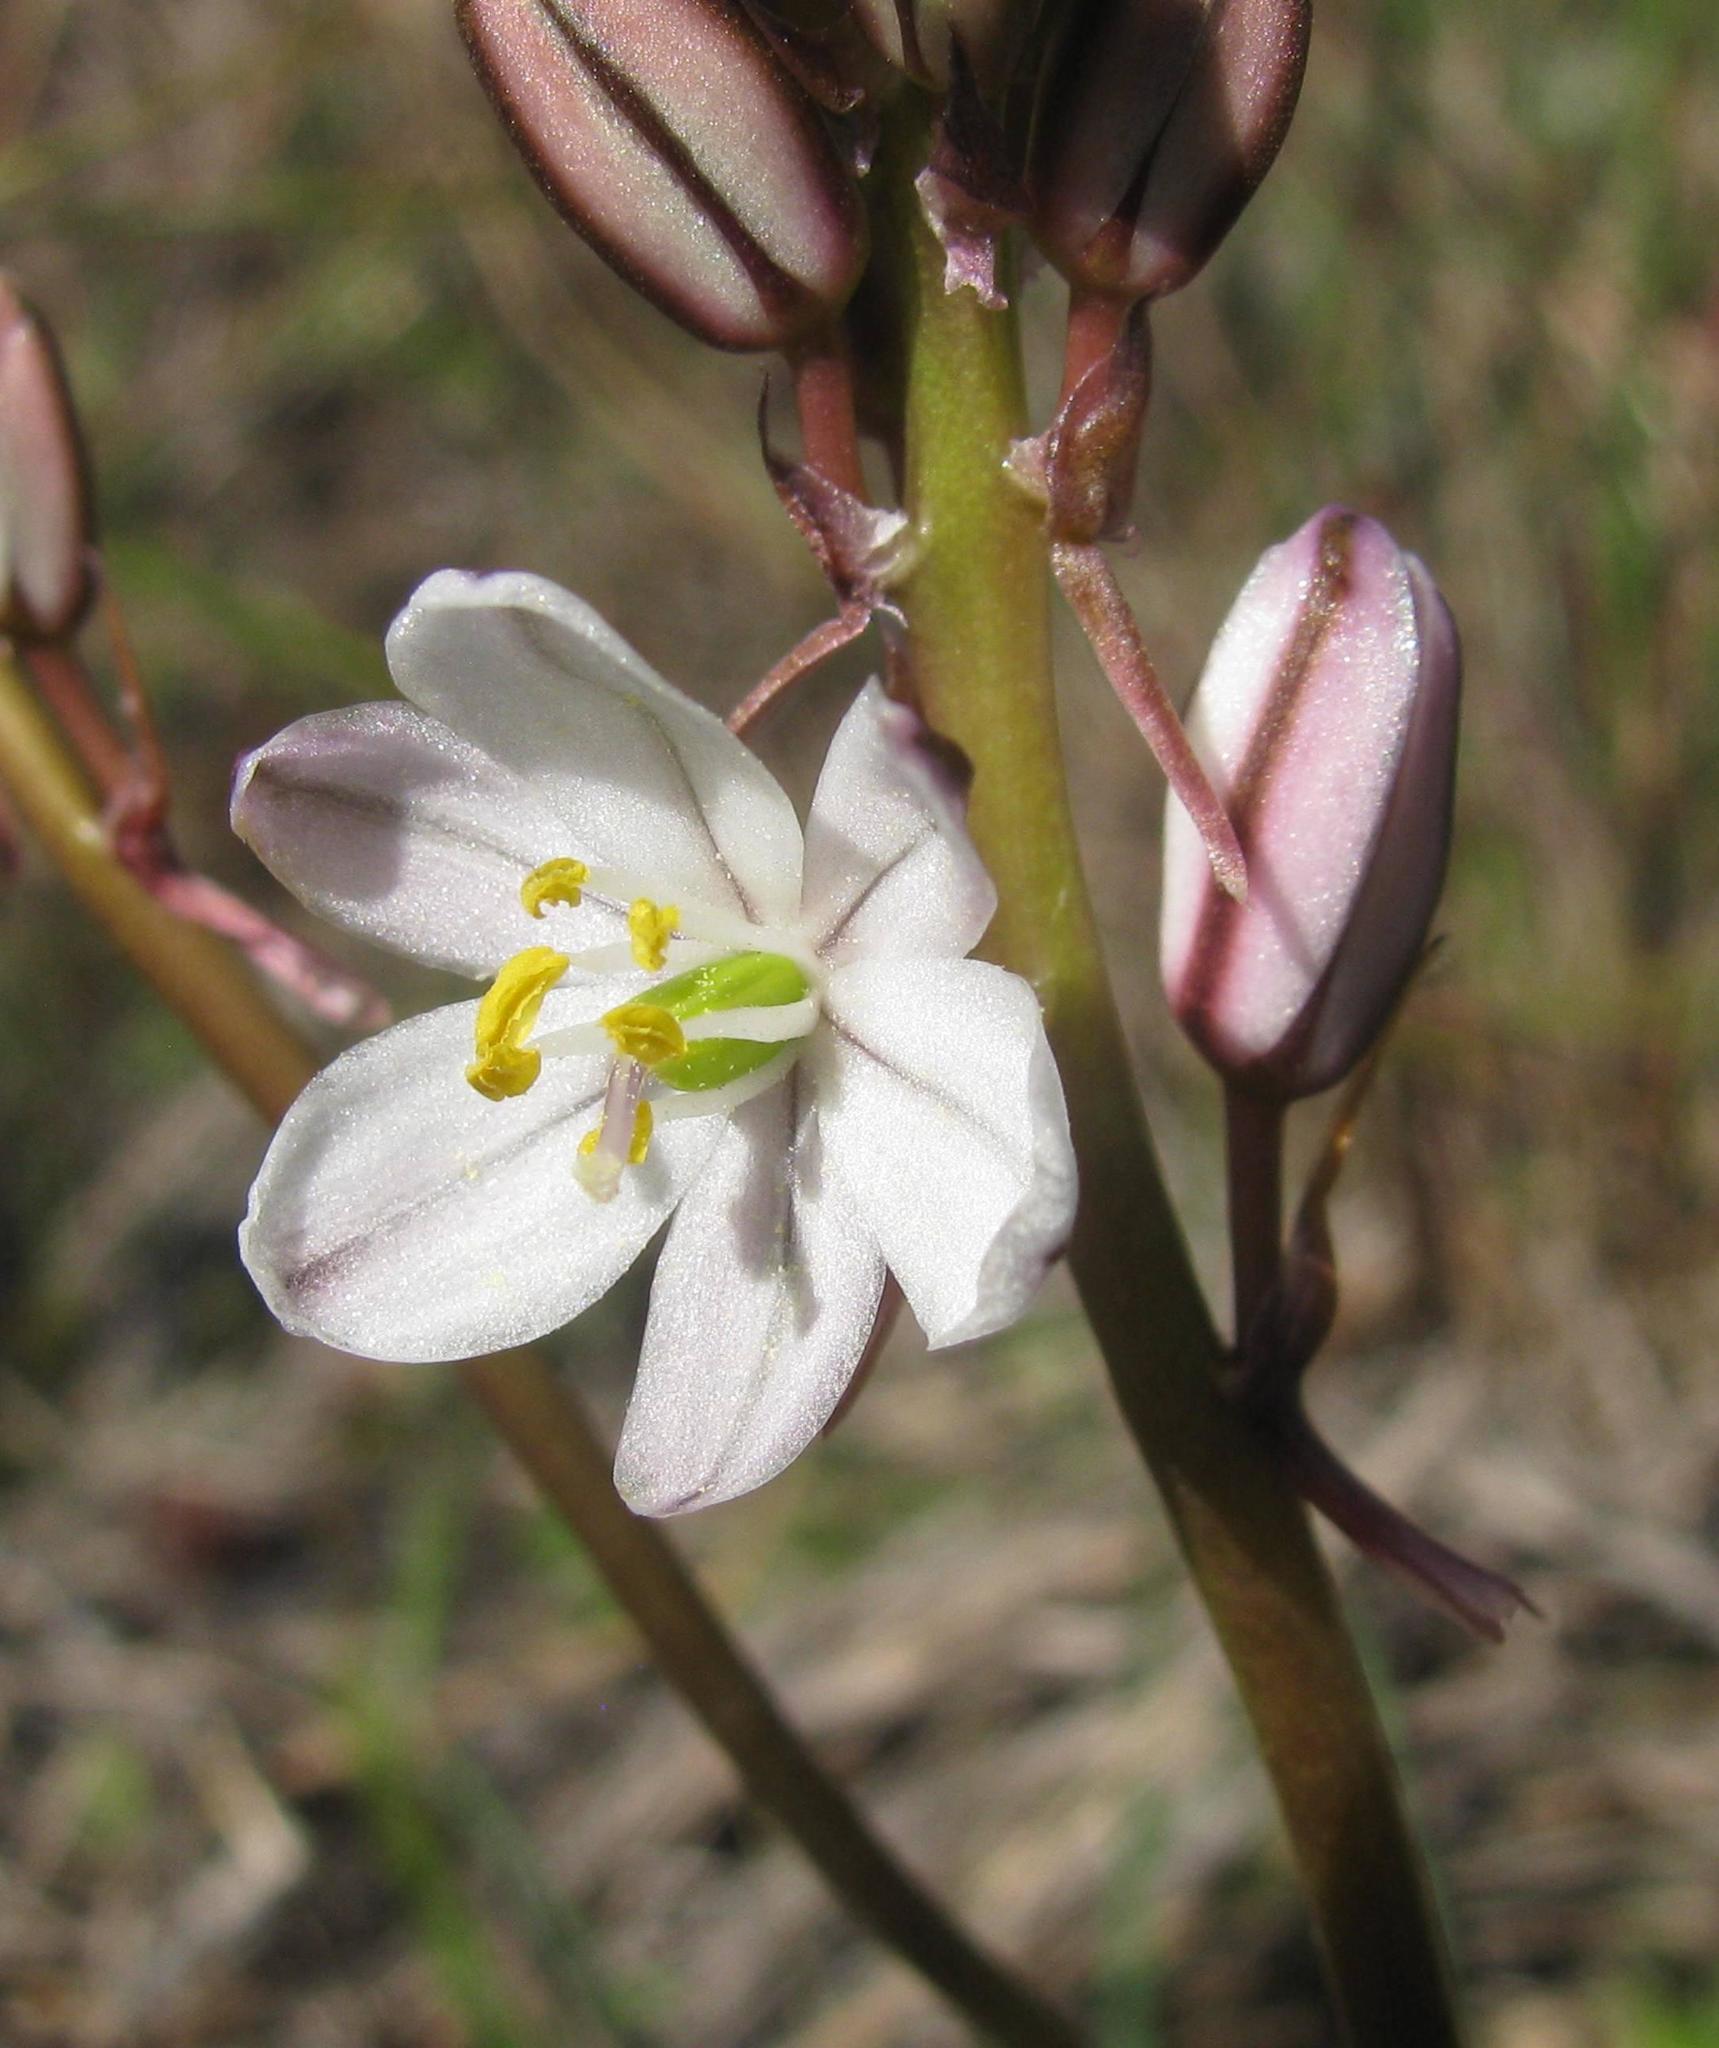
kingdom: Plantae
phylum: Tracheophyta
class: Liliopsida
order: Asparagales
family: Asparagaceae
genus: Drimia
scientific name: Drimia fragrans
